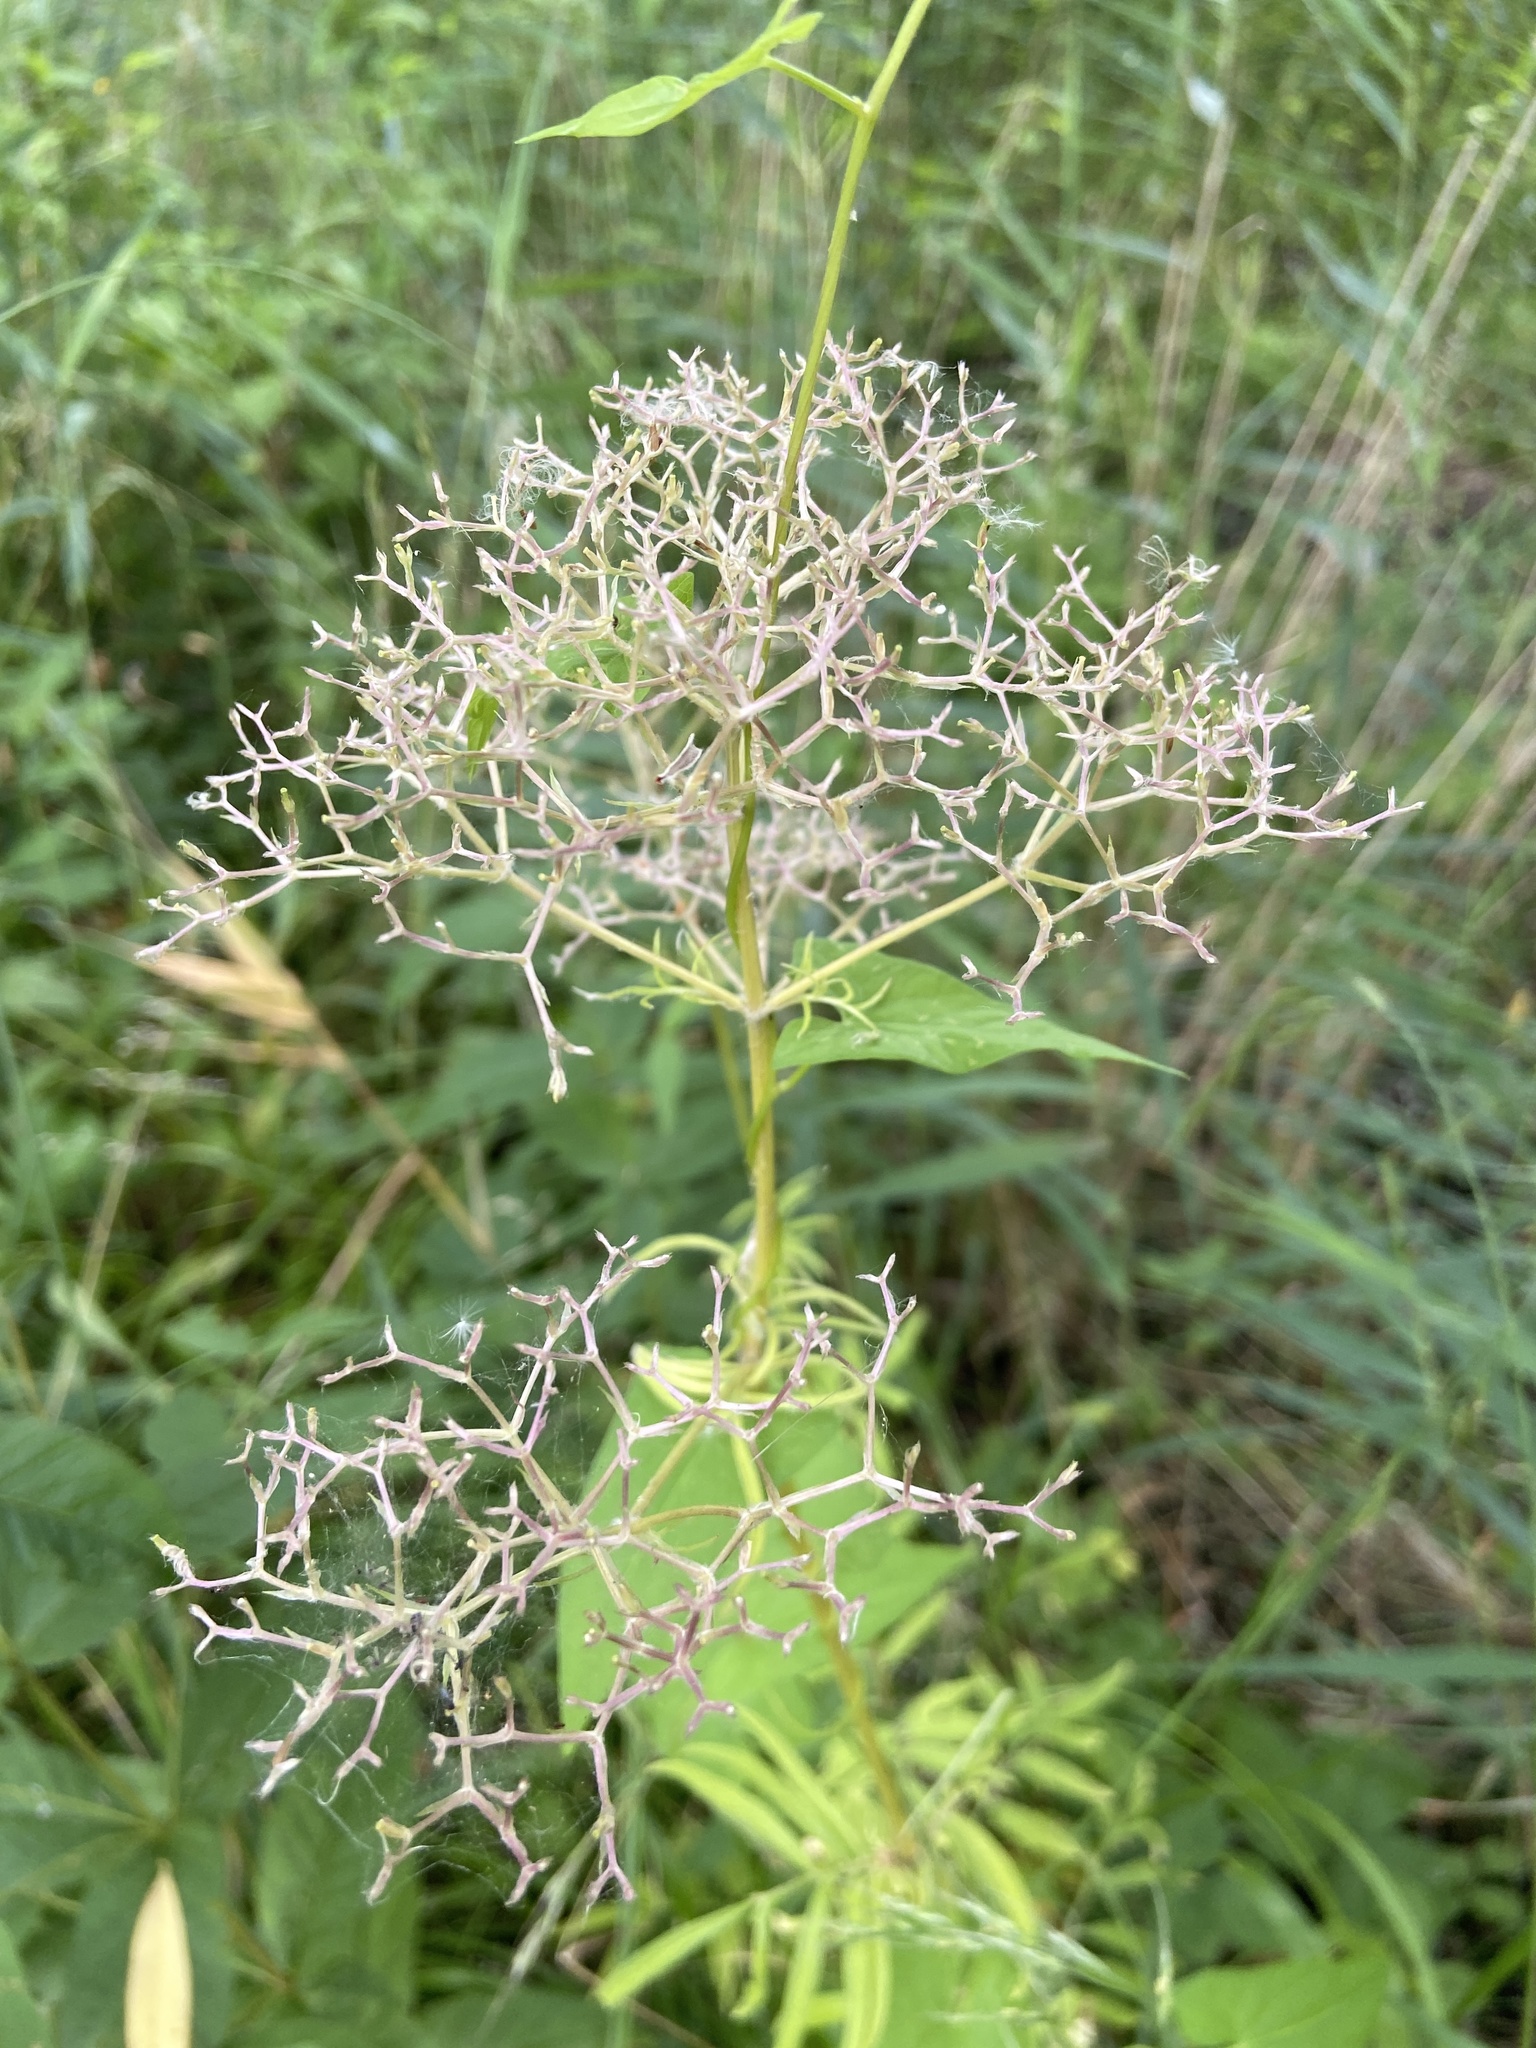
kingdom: Plantae
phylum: Tracheophyta
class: Magnoliopsida
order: Dipsacales
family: Caprifoliaceae
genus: Valeriana
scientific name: Valeriana officinalis
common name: Common valerian
